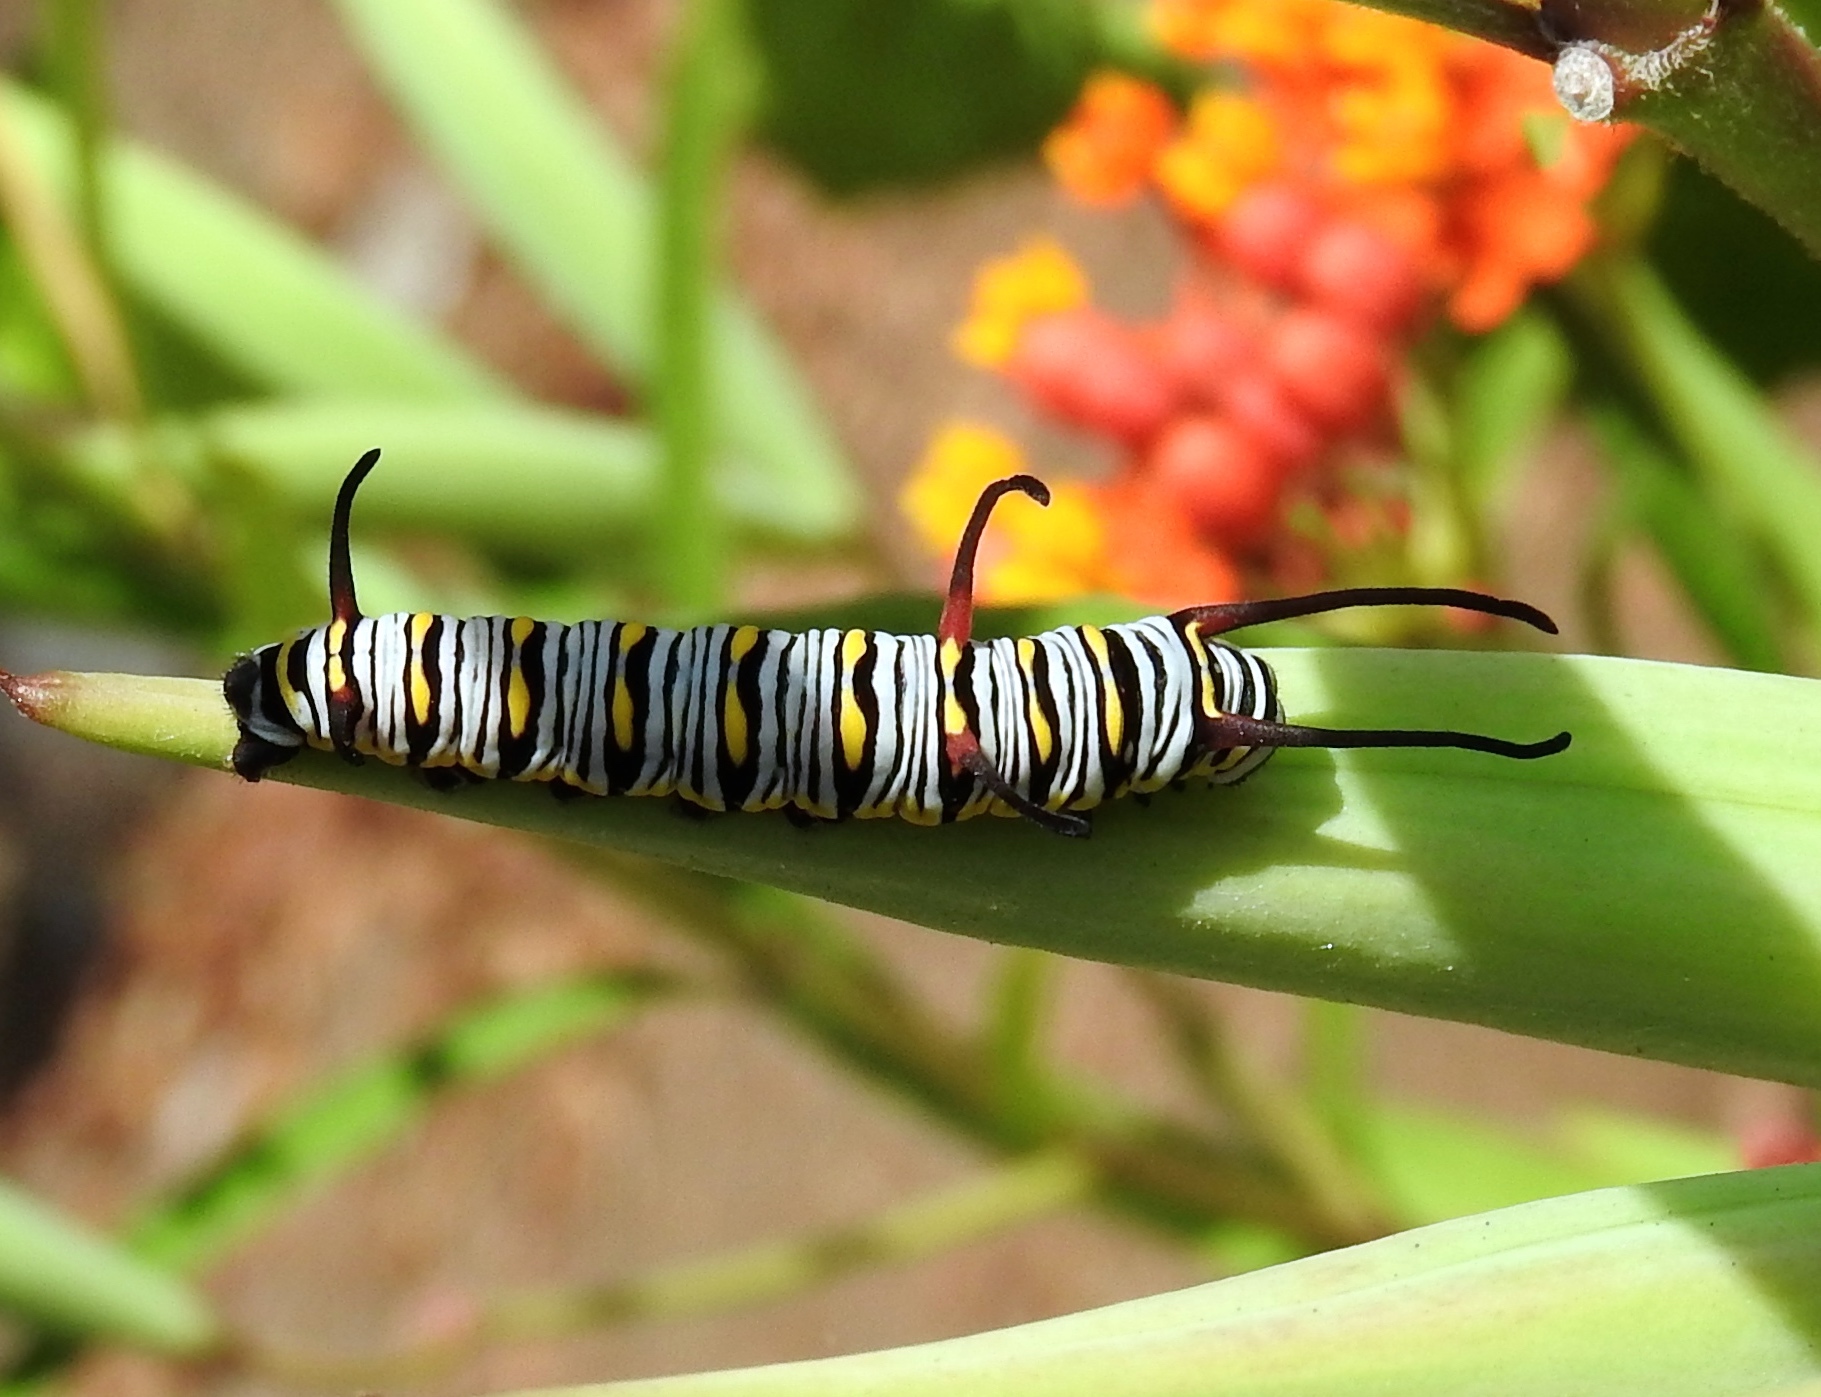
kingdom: Animalia
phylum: Arthropoda
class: Insecta
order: Lepidoptera
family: Nymphalidae
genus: Danaus
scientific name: Danaus gilippus
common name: Queen
